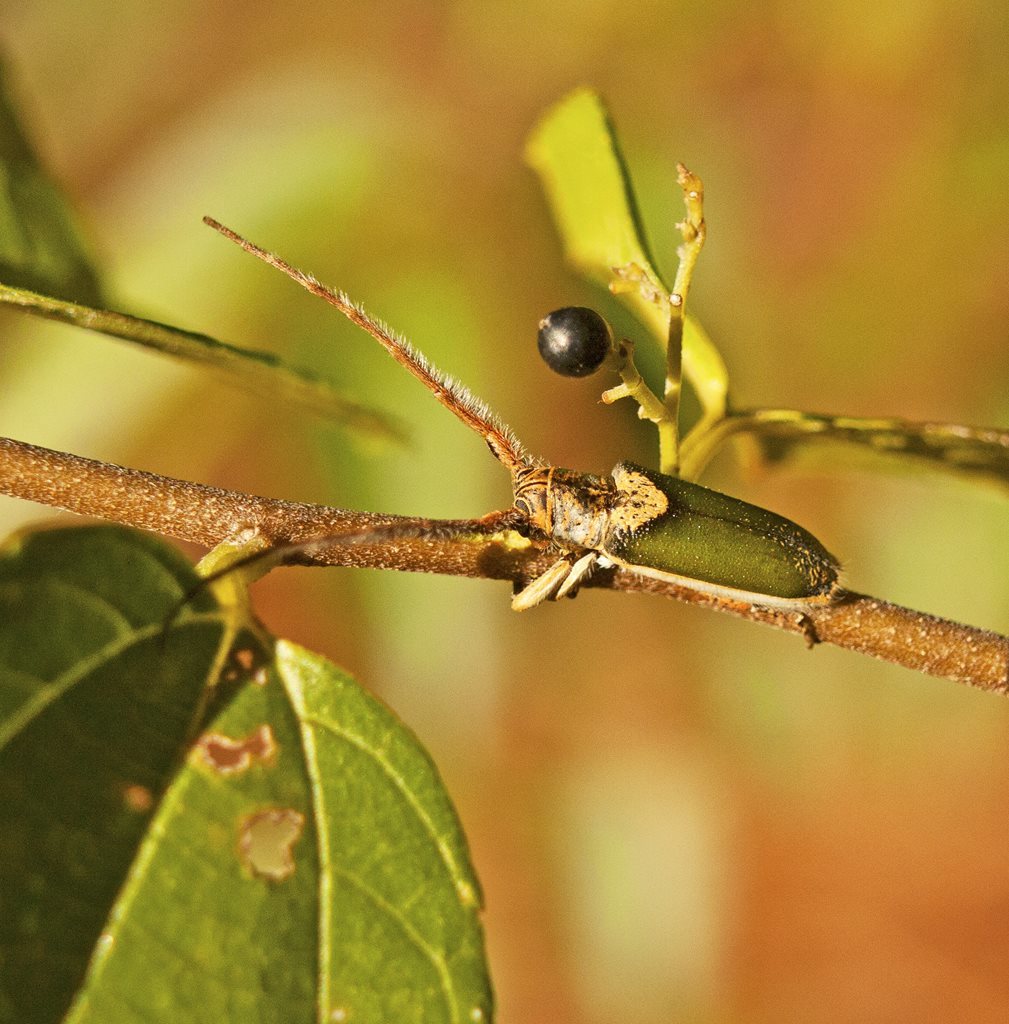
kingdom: Animalia
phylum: Arthropoda
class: Insecta
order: Coleoptera
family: Cerambycidae
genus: Rhytiphora
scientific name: Rhytiphora nigrovirens
